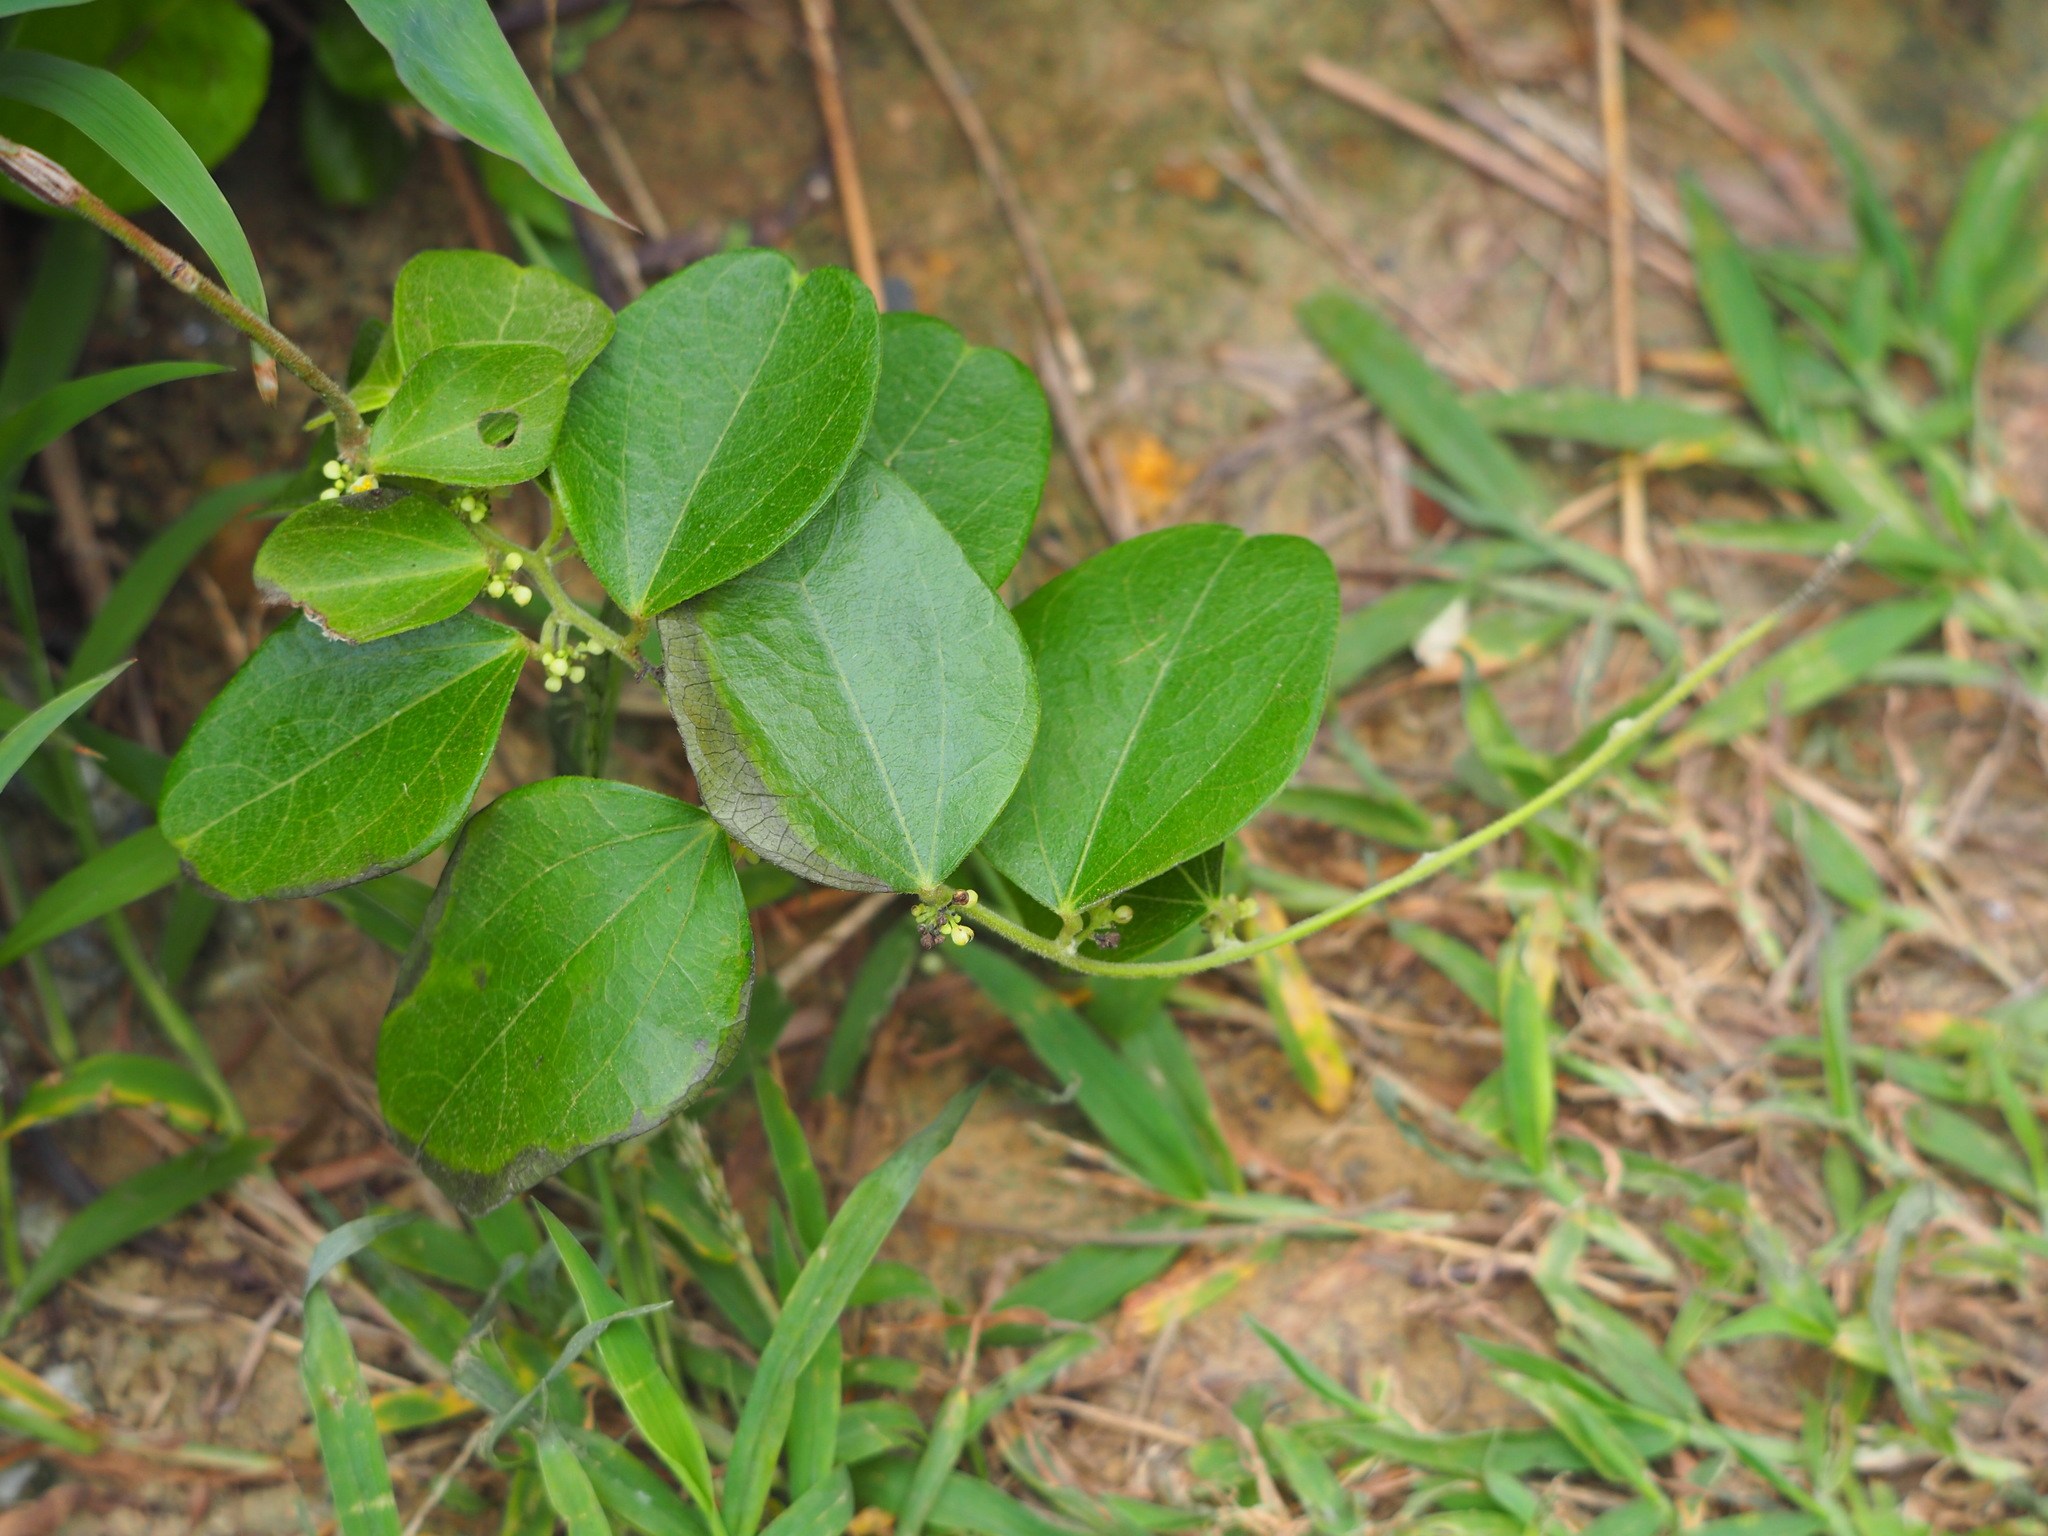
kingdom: Plantae
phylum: Tracheophyta
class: Magnoliopsida
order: Ranunculales
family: Menispermaceae
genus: Cocculus
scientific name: Cocculus orbiculatus
